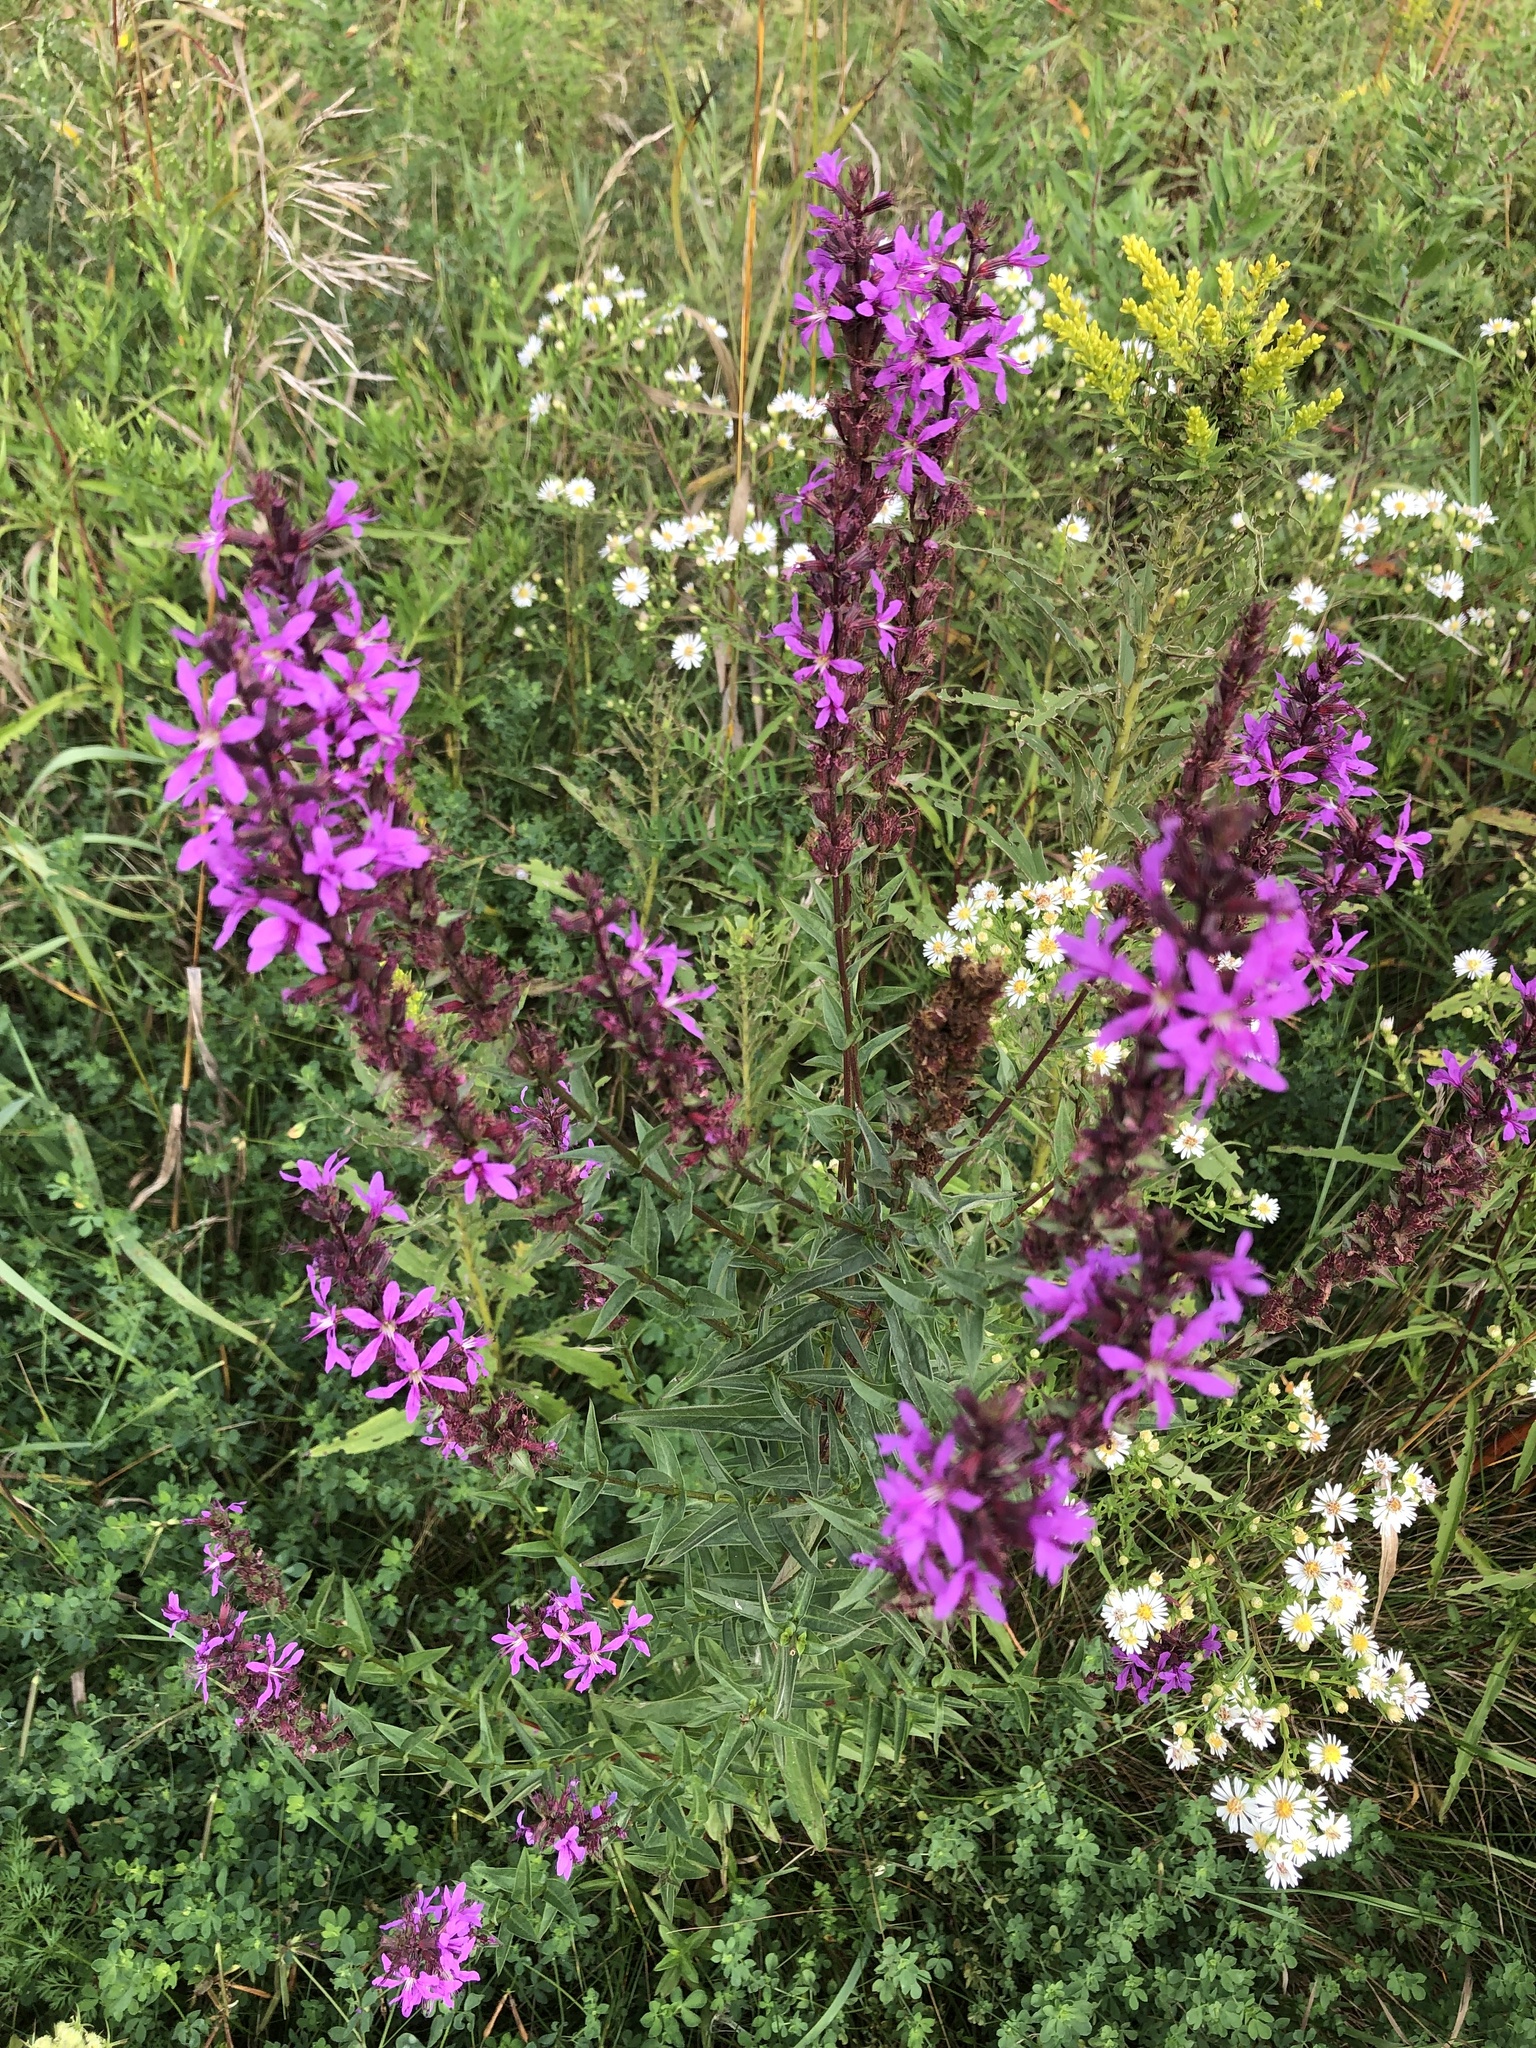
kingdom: Plantae
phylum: Tracheophyta
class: Magnoliopsida
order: Myrtales
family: Lythraceae
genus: Lythrum
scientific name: Lythrum salicaria
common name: Purple loosestrife
